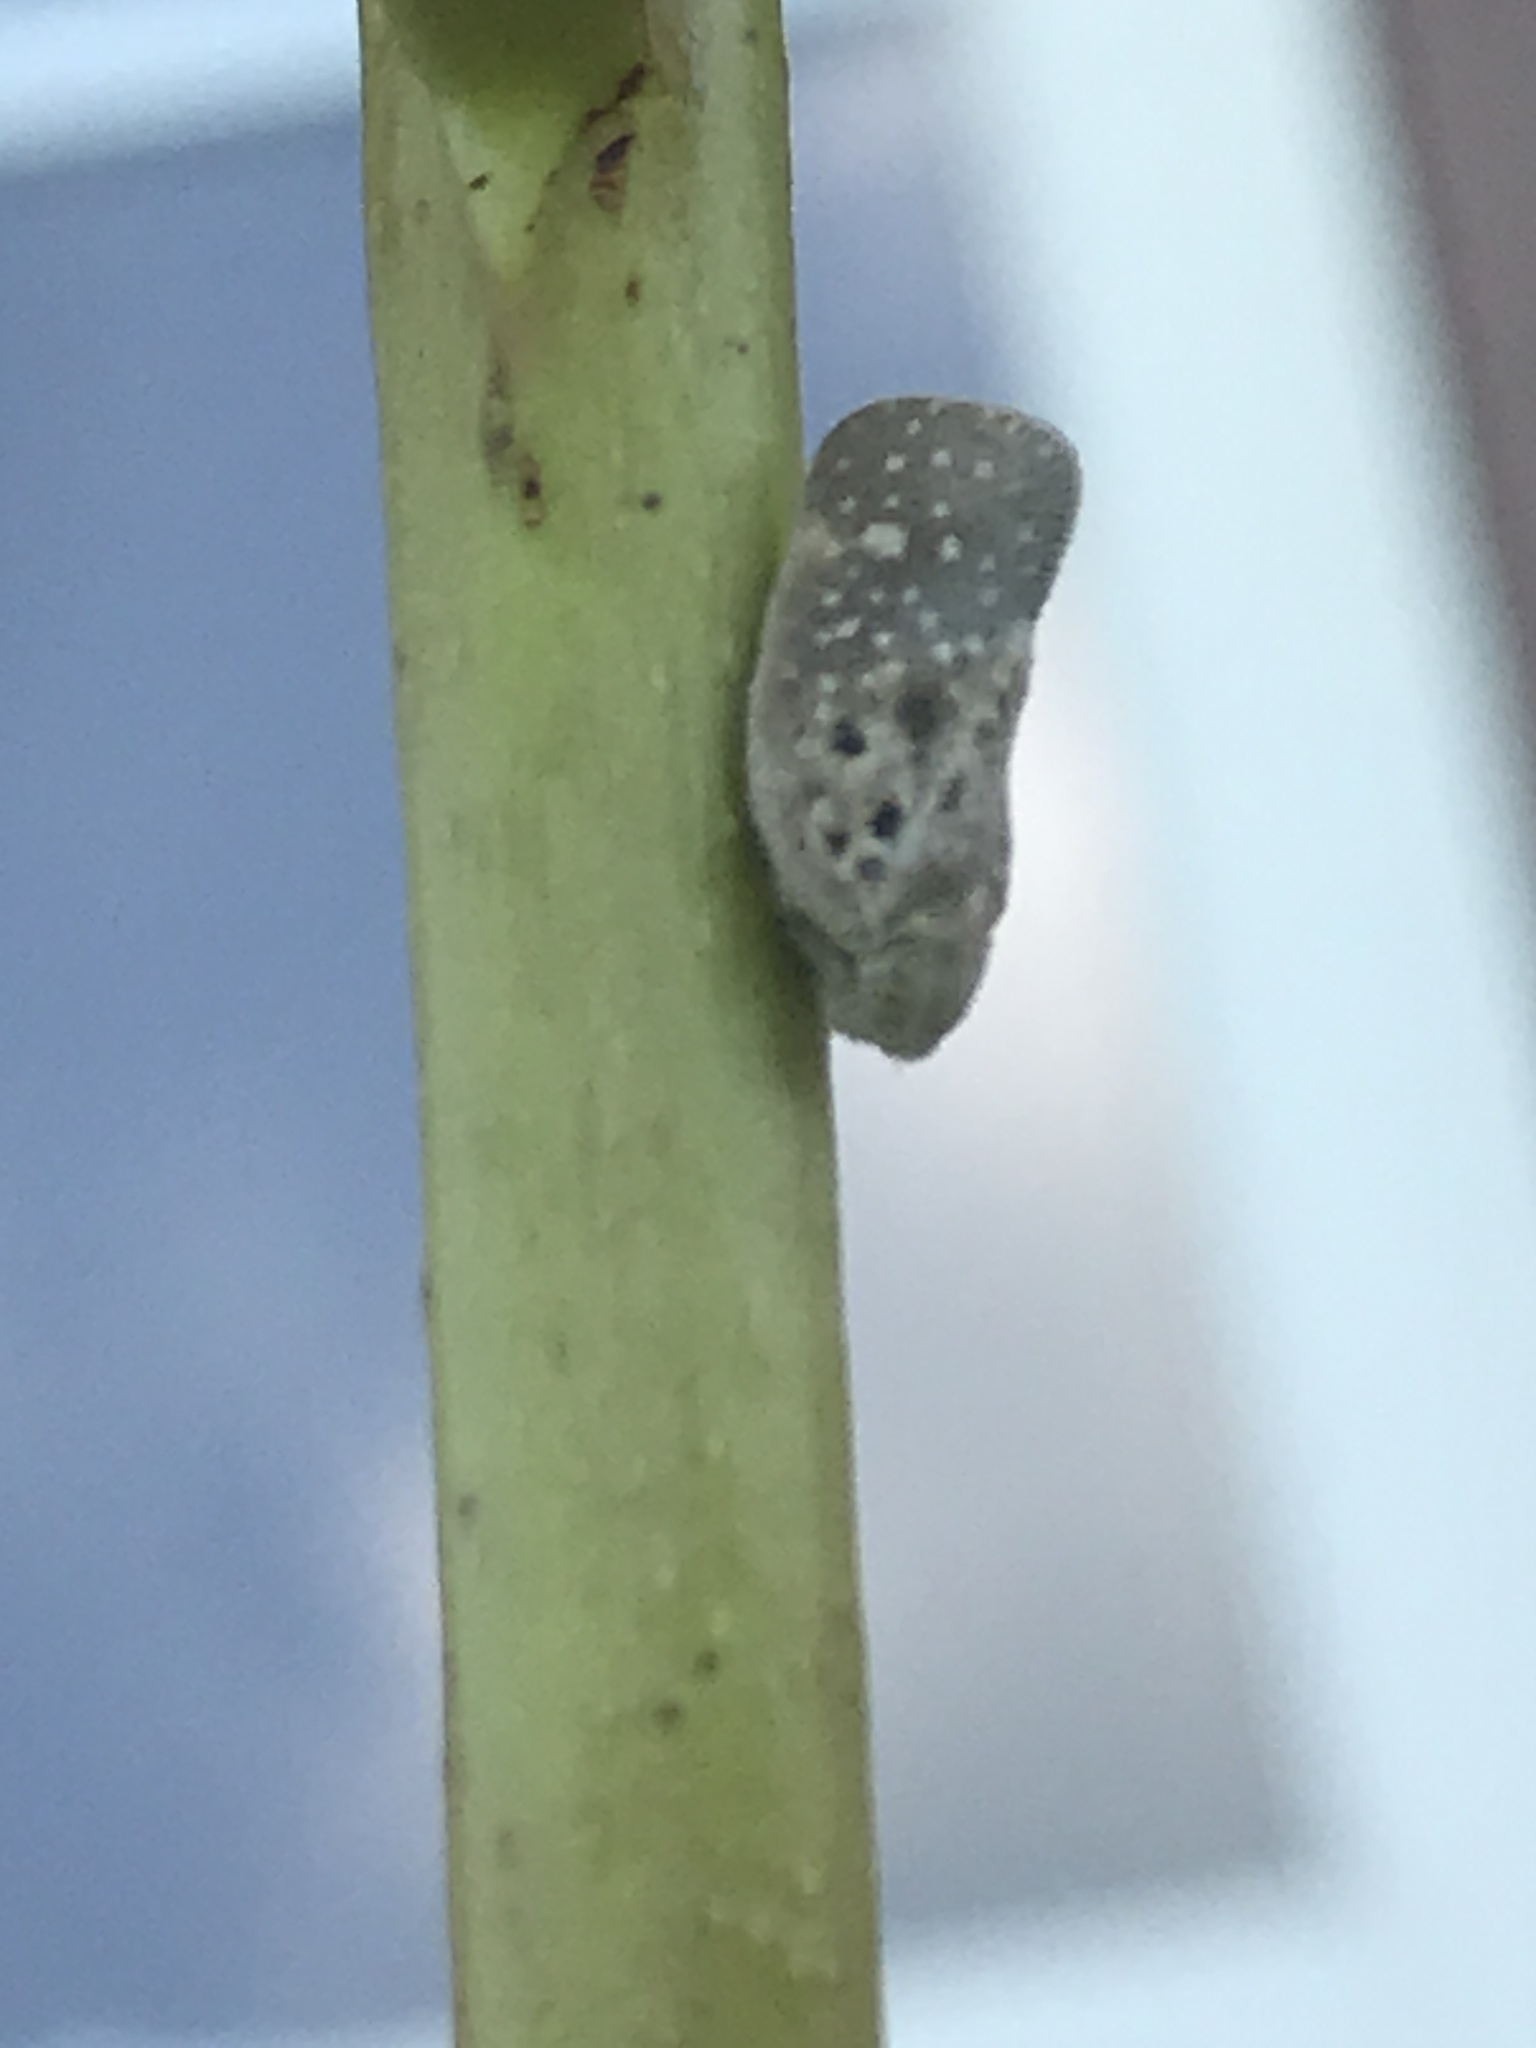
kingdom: Animalia
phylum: Arthropoda
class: Insecta
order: Hemiptera
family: Flatidae
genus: Metcalfa
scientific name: Metcalfa pruinosa
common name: Citrus flatid planthopper
